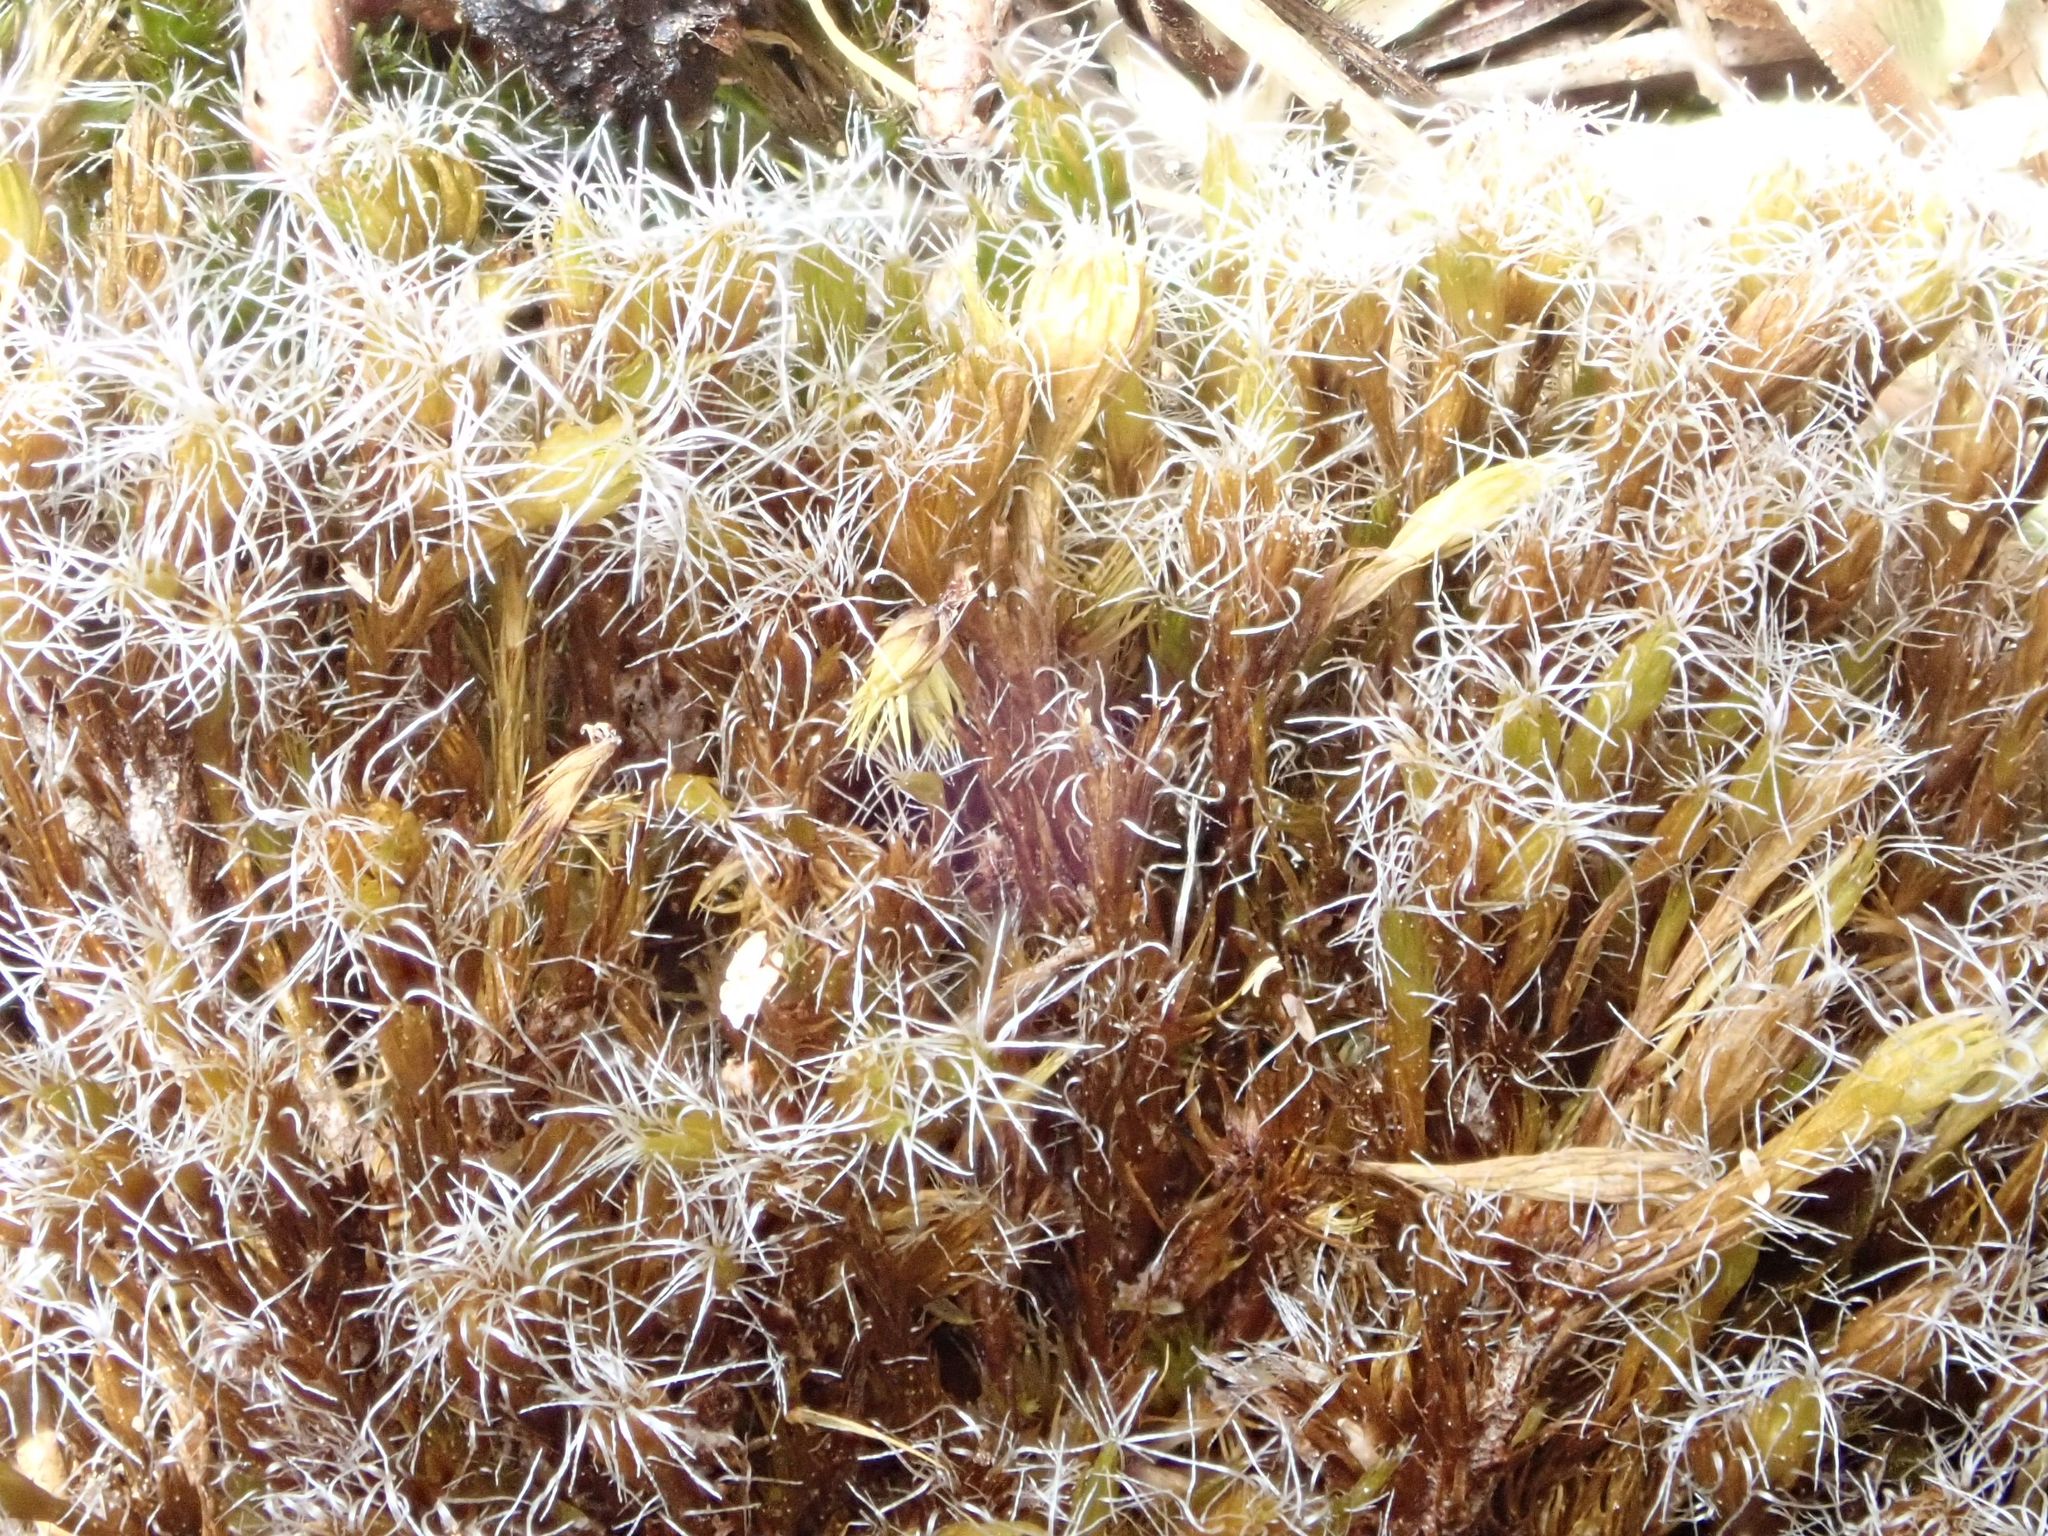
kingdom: Plantae
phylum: Bryophyta
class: Bryopsida
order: Dicranales
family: Leucobryaceae
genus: Campylopus
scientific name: Campylopus introflexus
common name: Heath star moss
